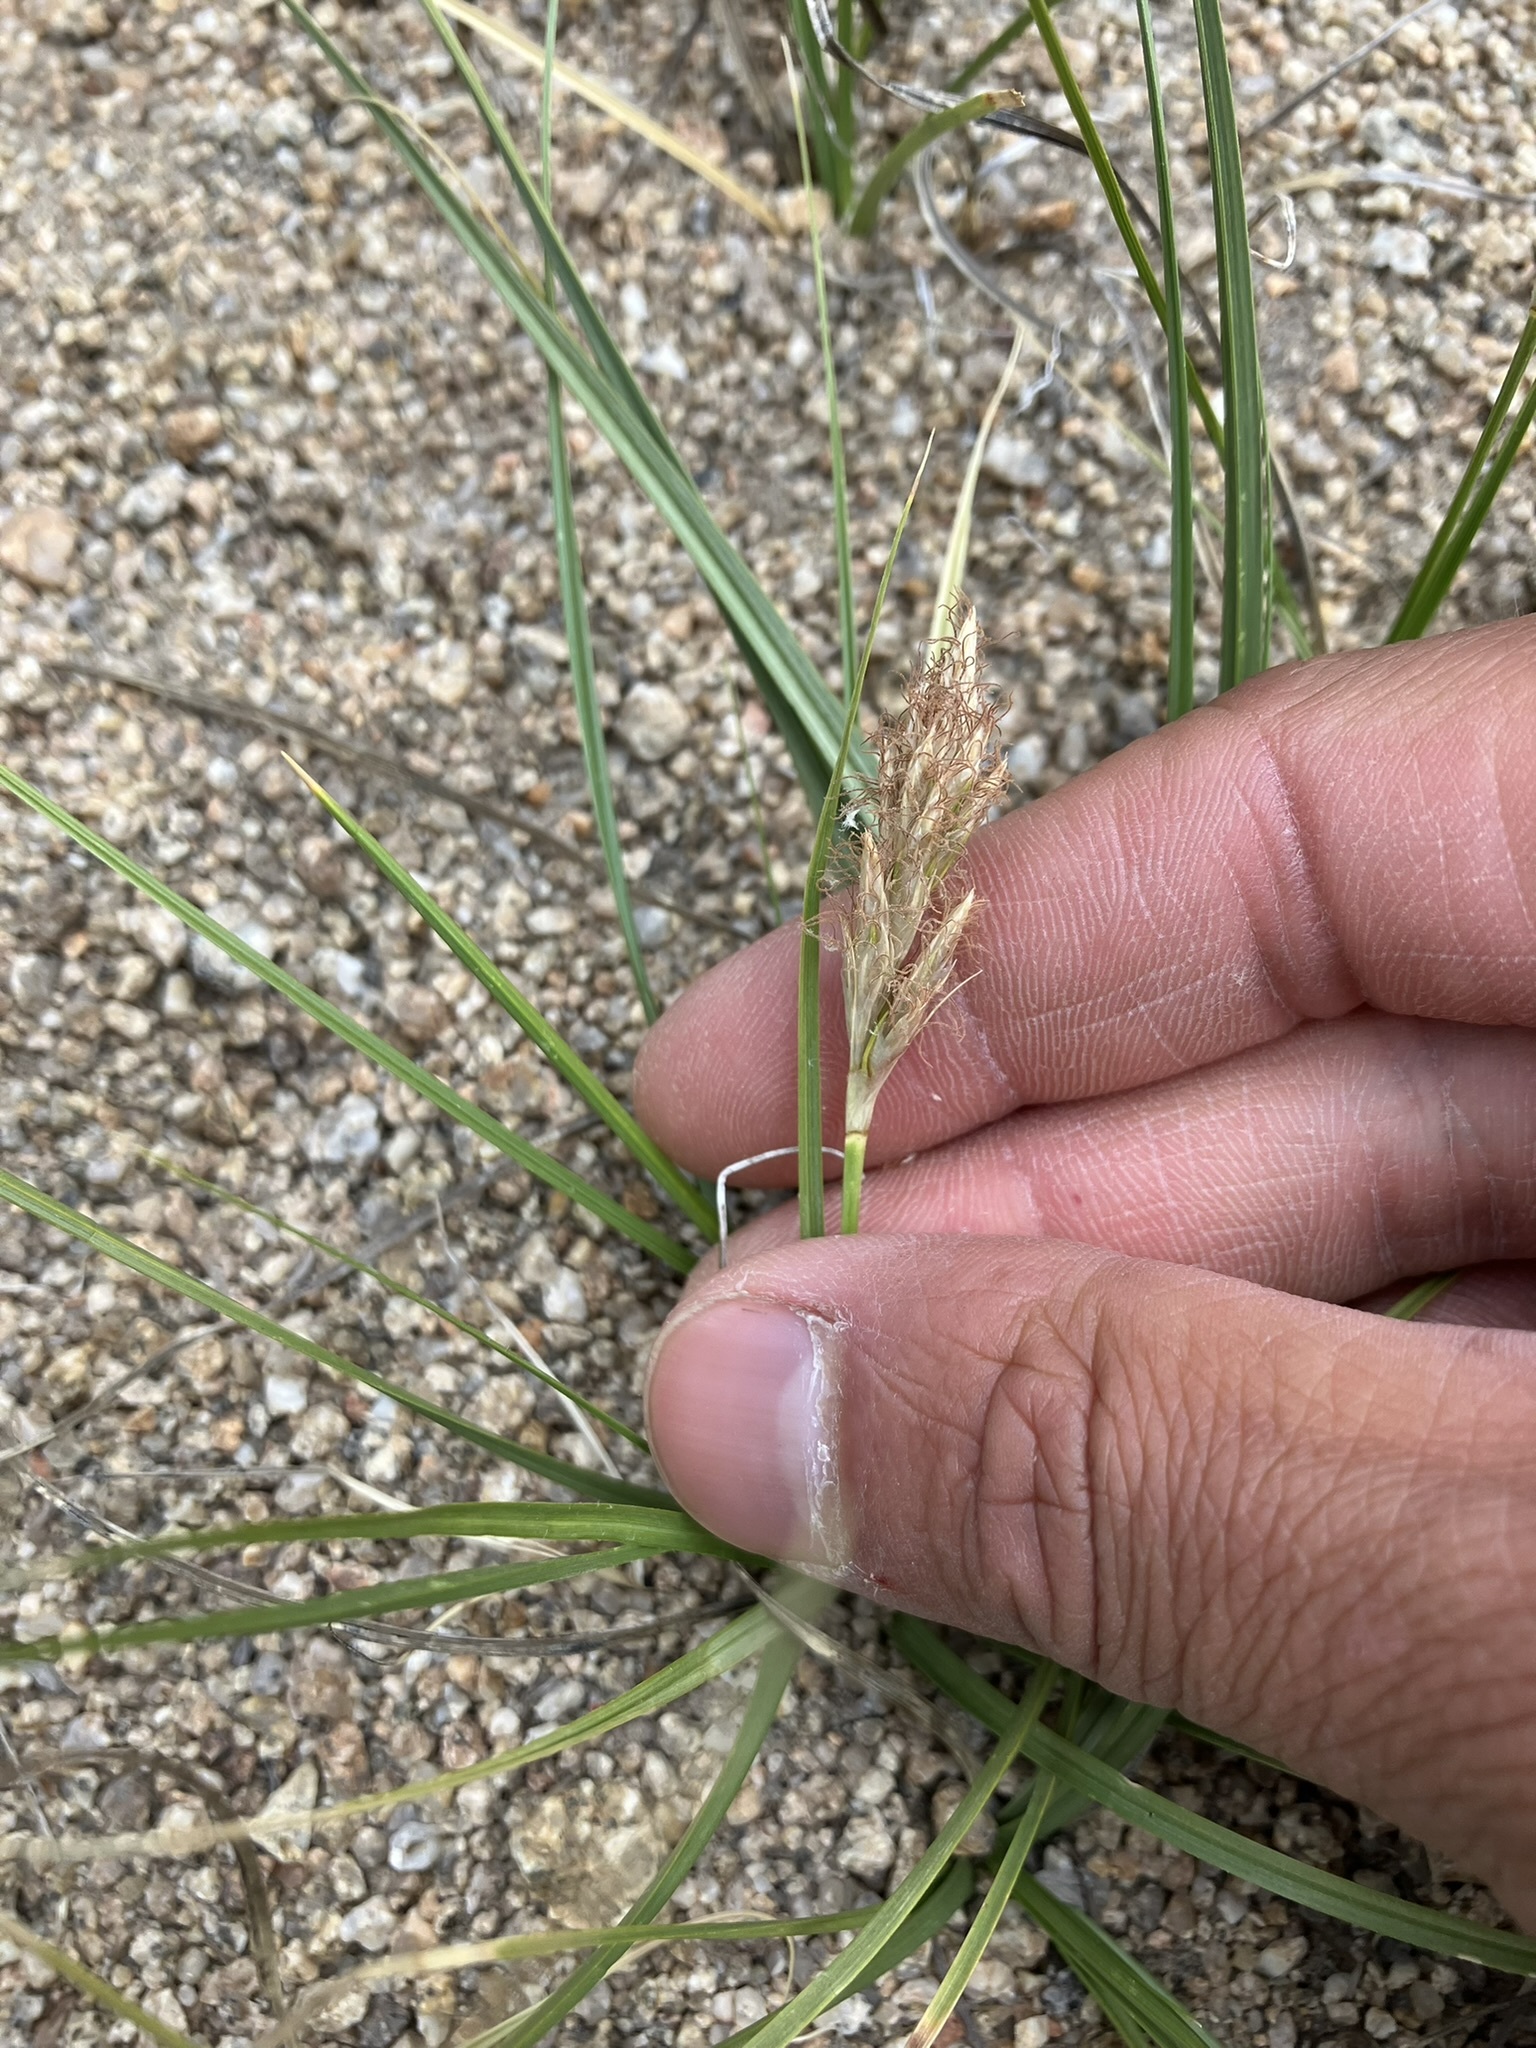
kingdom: Plantae
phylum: Tracheophyta
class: Liliopsida
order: Poales
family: Cyperaceae
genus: Carex
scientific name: Carex douglasii
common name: Douglas' sedge
